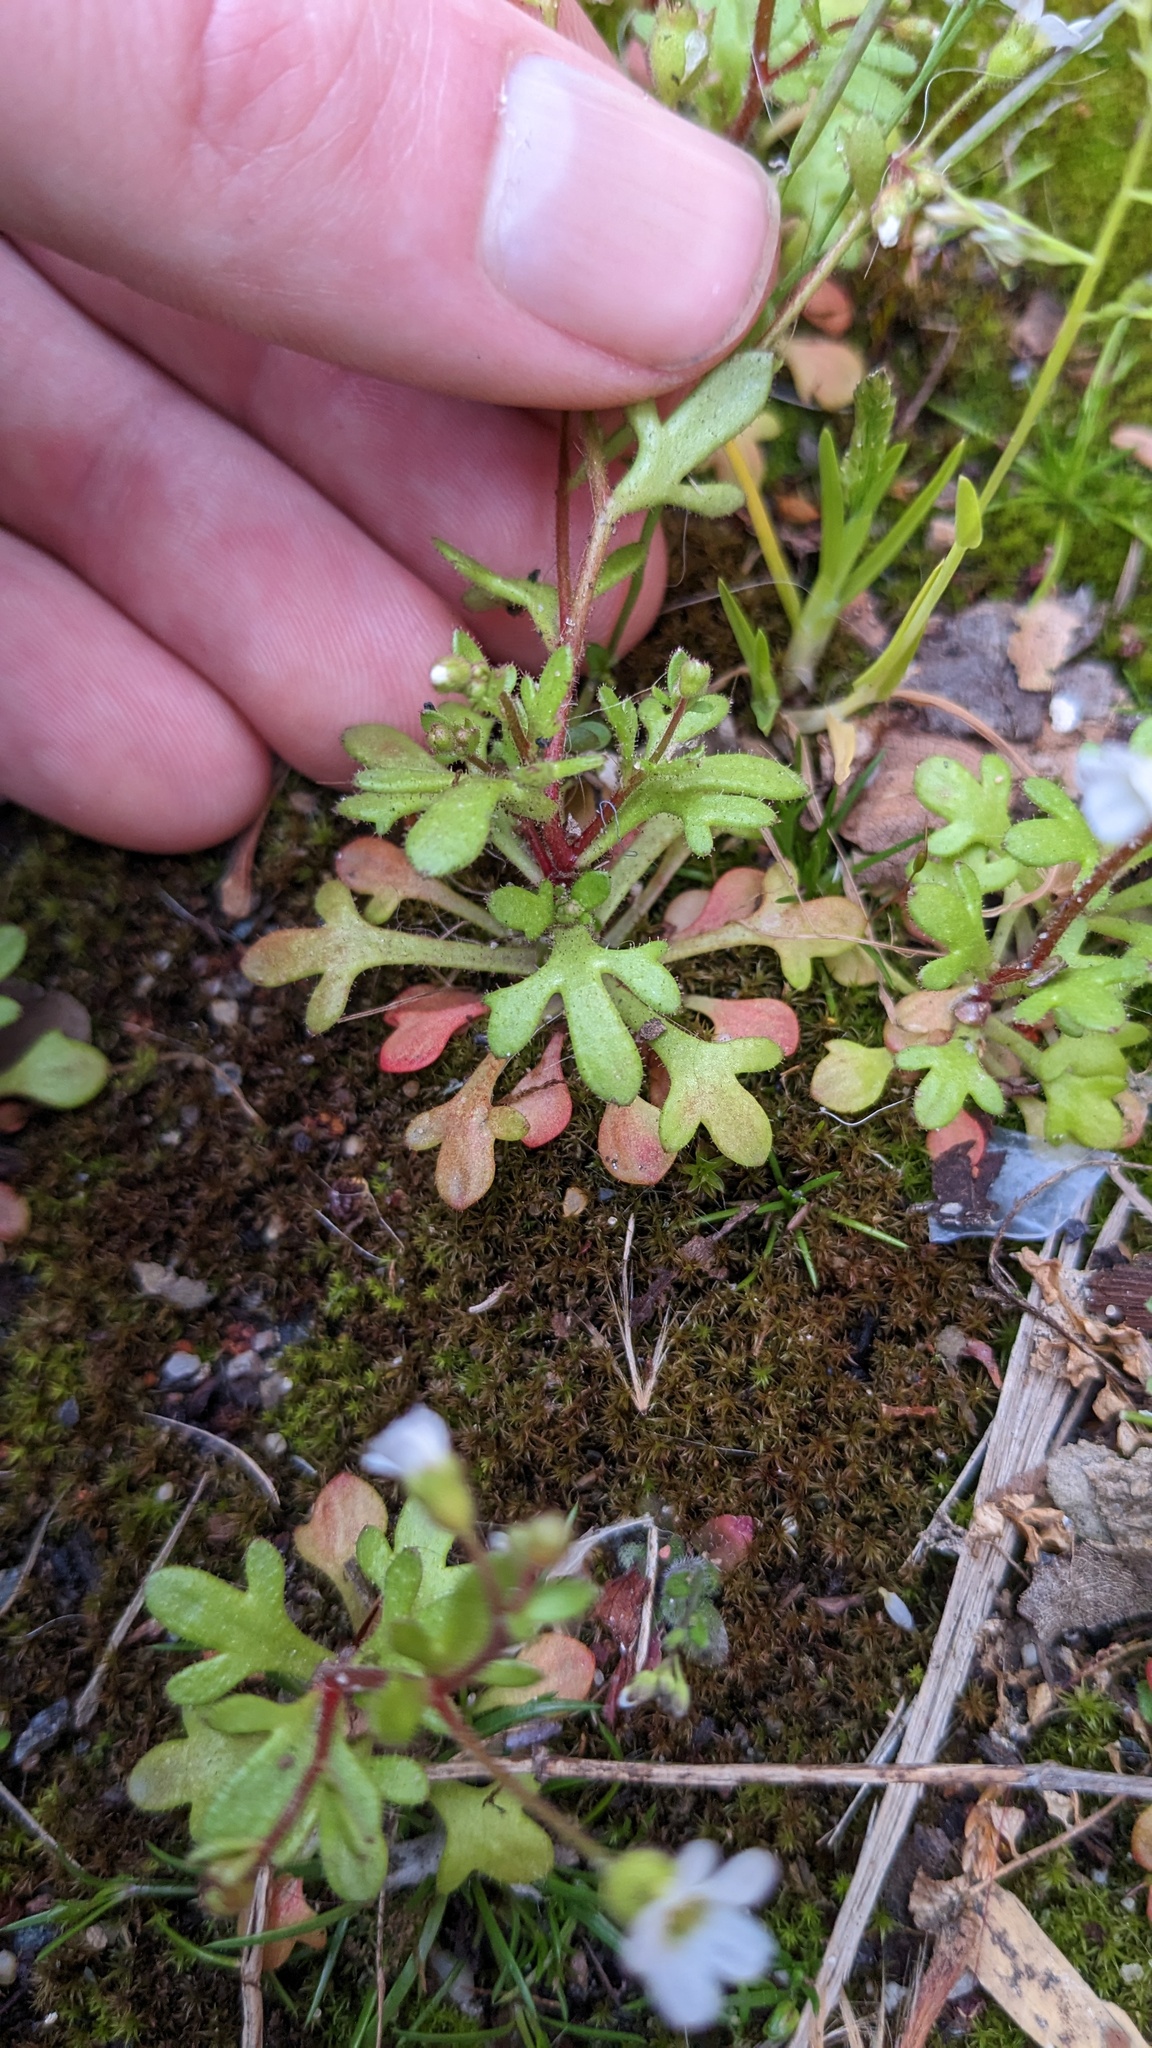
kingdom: Plantae
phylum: Tracheophyta
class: Magnoliopsida
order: Saxifragales
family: Saxifragaceae
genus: Saxifraga
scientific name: Saxifraga tridactylites
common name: Rue-leaved saxifrage
